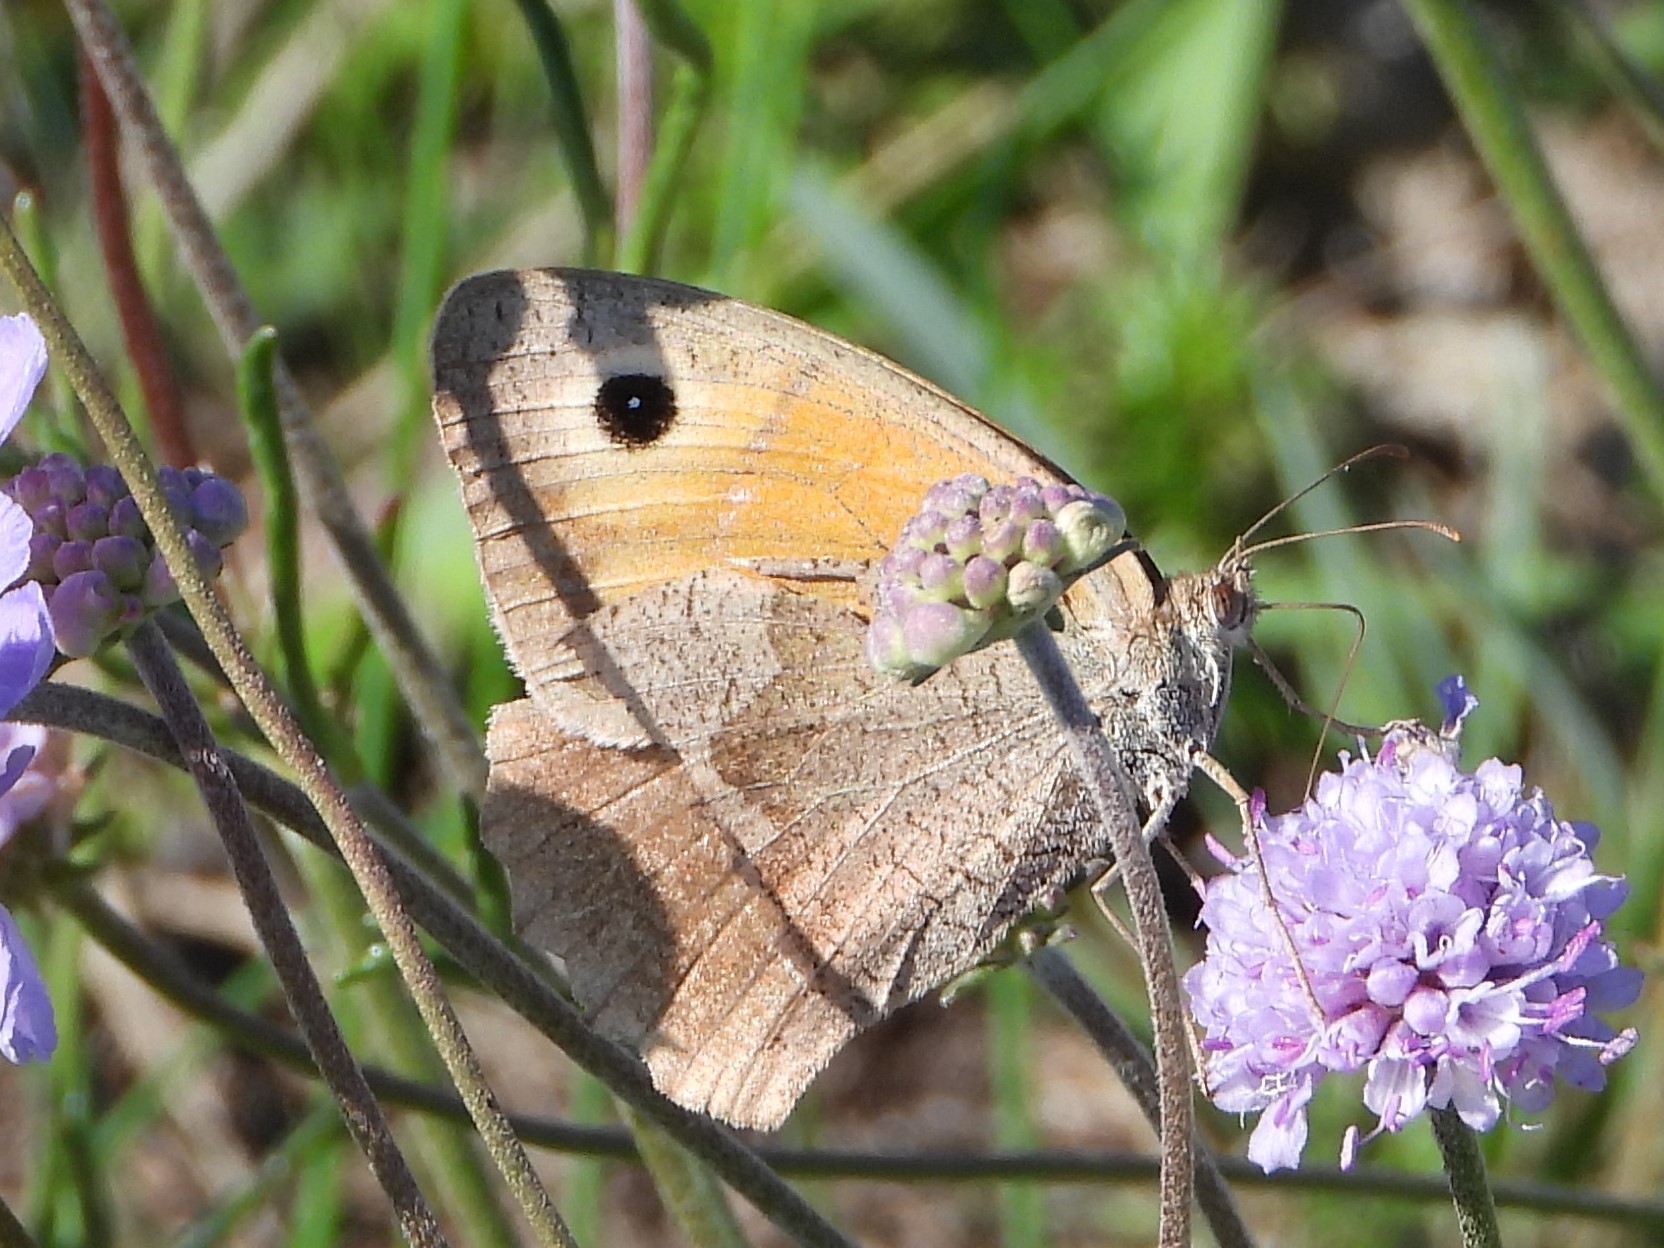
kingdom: Animalia
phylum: Arthropoda
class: Insecta
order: Lepidoptera
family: Nymphalidae
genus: Maniola
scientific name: Maniola jurtina
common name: Meadow brown
